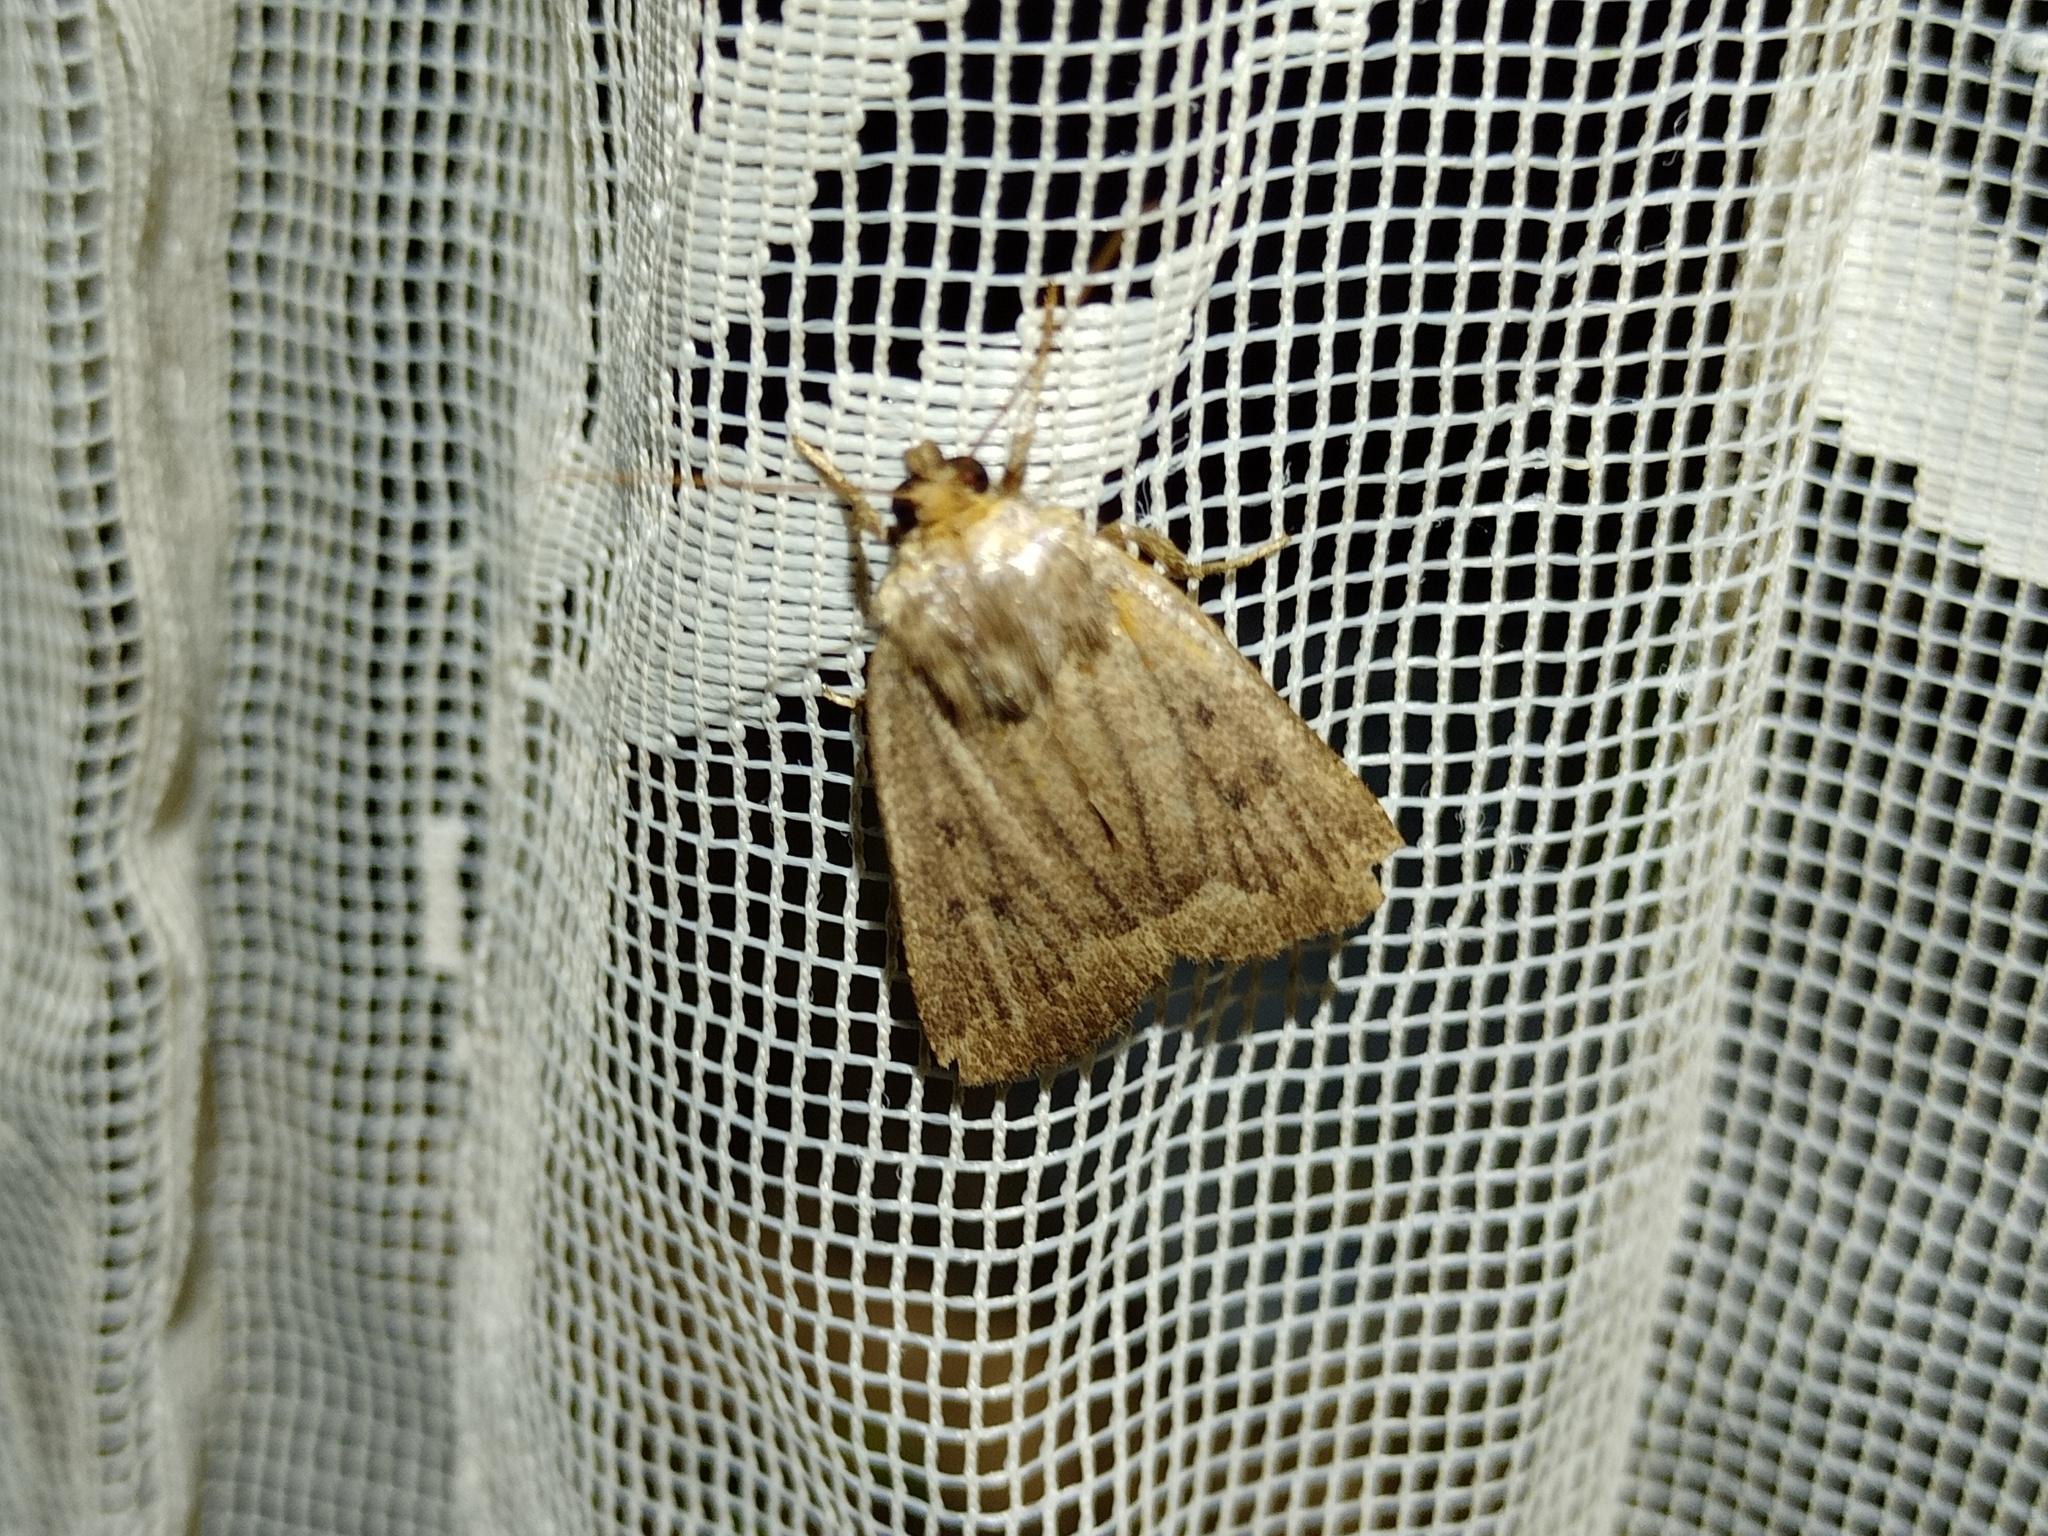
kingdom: Animalia
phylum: Arthropoda
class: Insecta
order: Lepidoptera
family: Noctuidae
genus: Amphipyra
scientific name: Amphipyra tragopoginis
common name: Mouse moth
